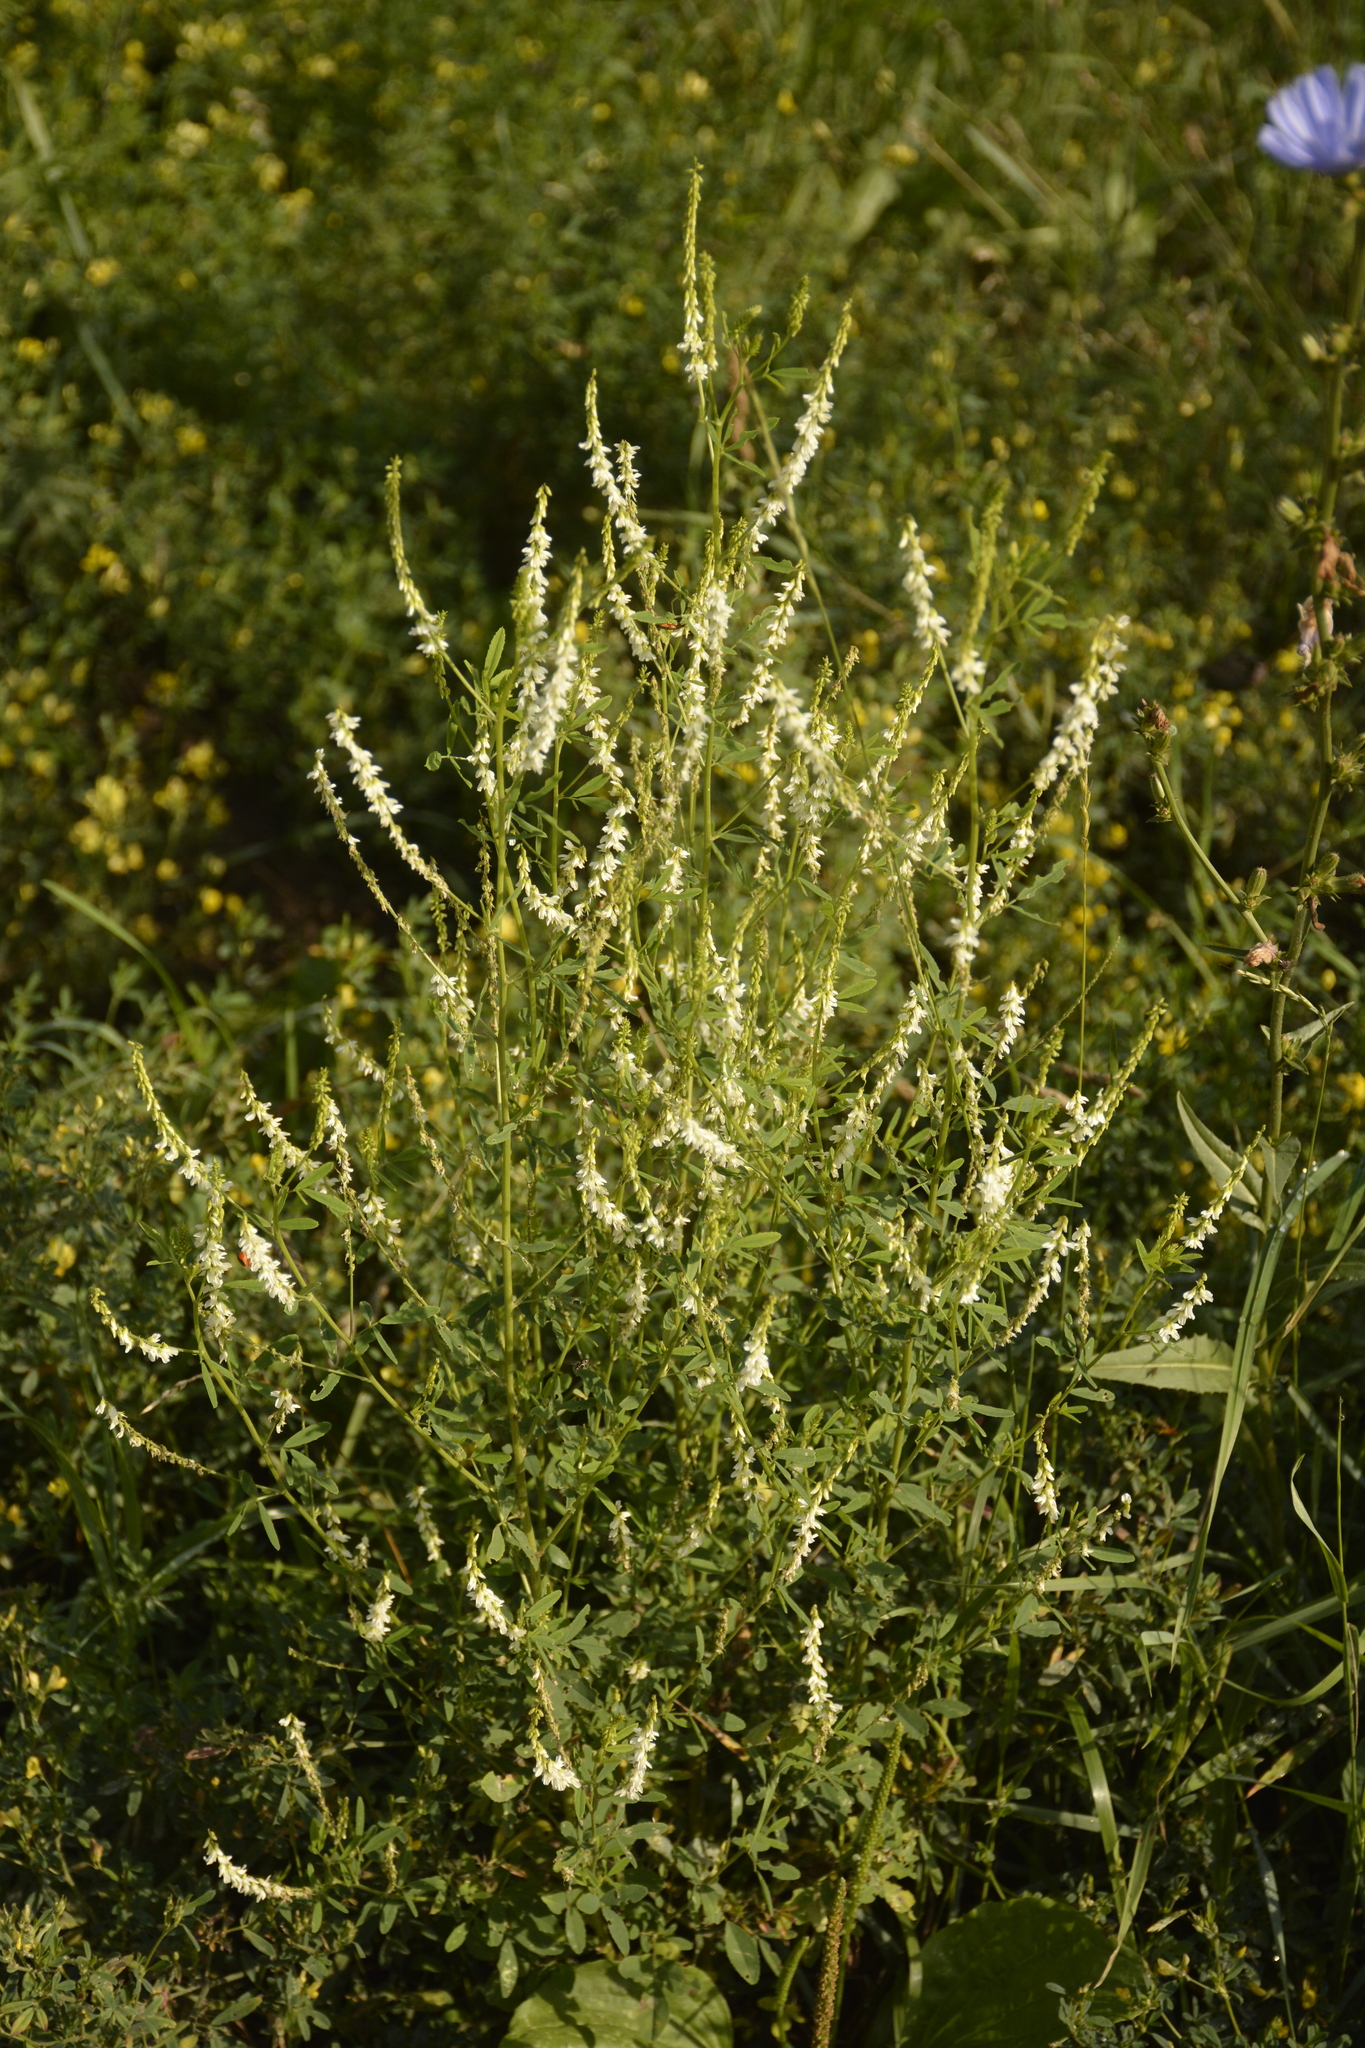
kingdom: Plantae
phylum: Tracheophyta
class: Magnoliopsida
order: Fabales
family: Fabaceae
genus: Melilotus
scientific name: Melilotus albus
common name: White melilot
